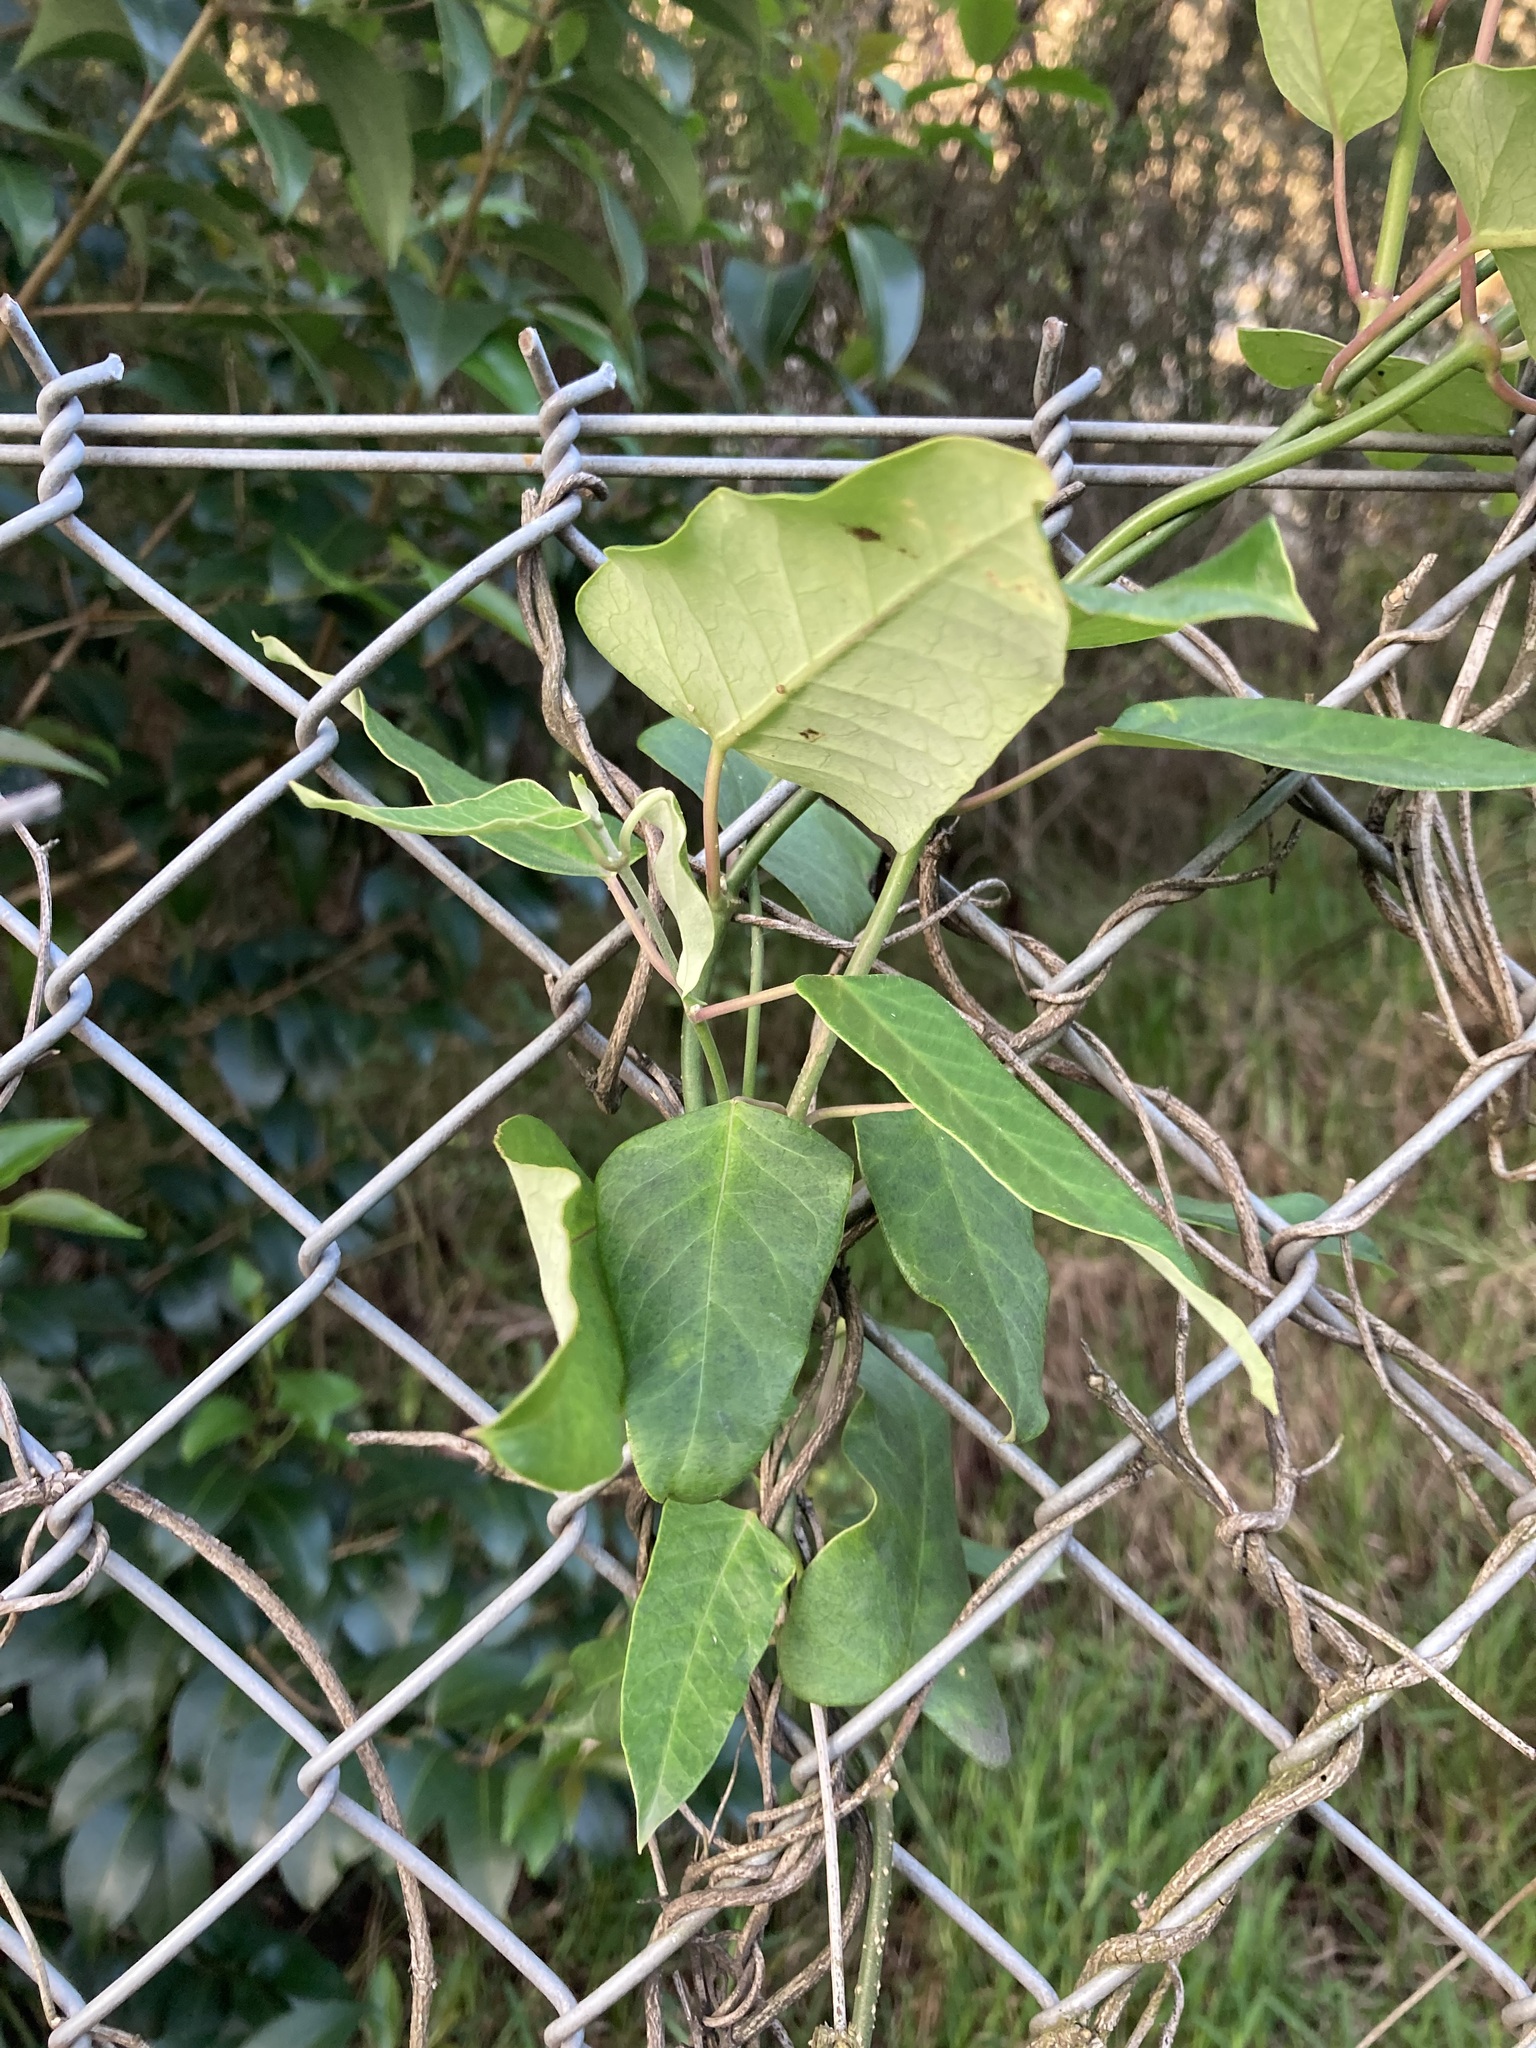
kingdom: Plantae
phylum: Tracheophyta
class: Magnoliopsida
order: Gentianales
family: Apocynaceae
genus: Araujia
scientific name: Araujia sericifera
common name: White bladderflower
